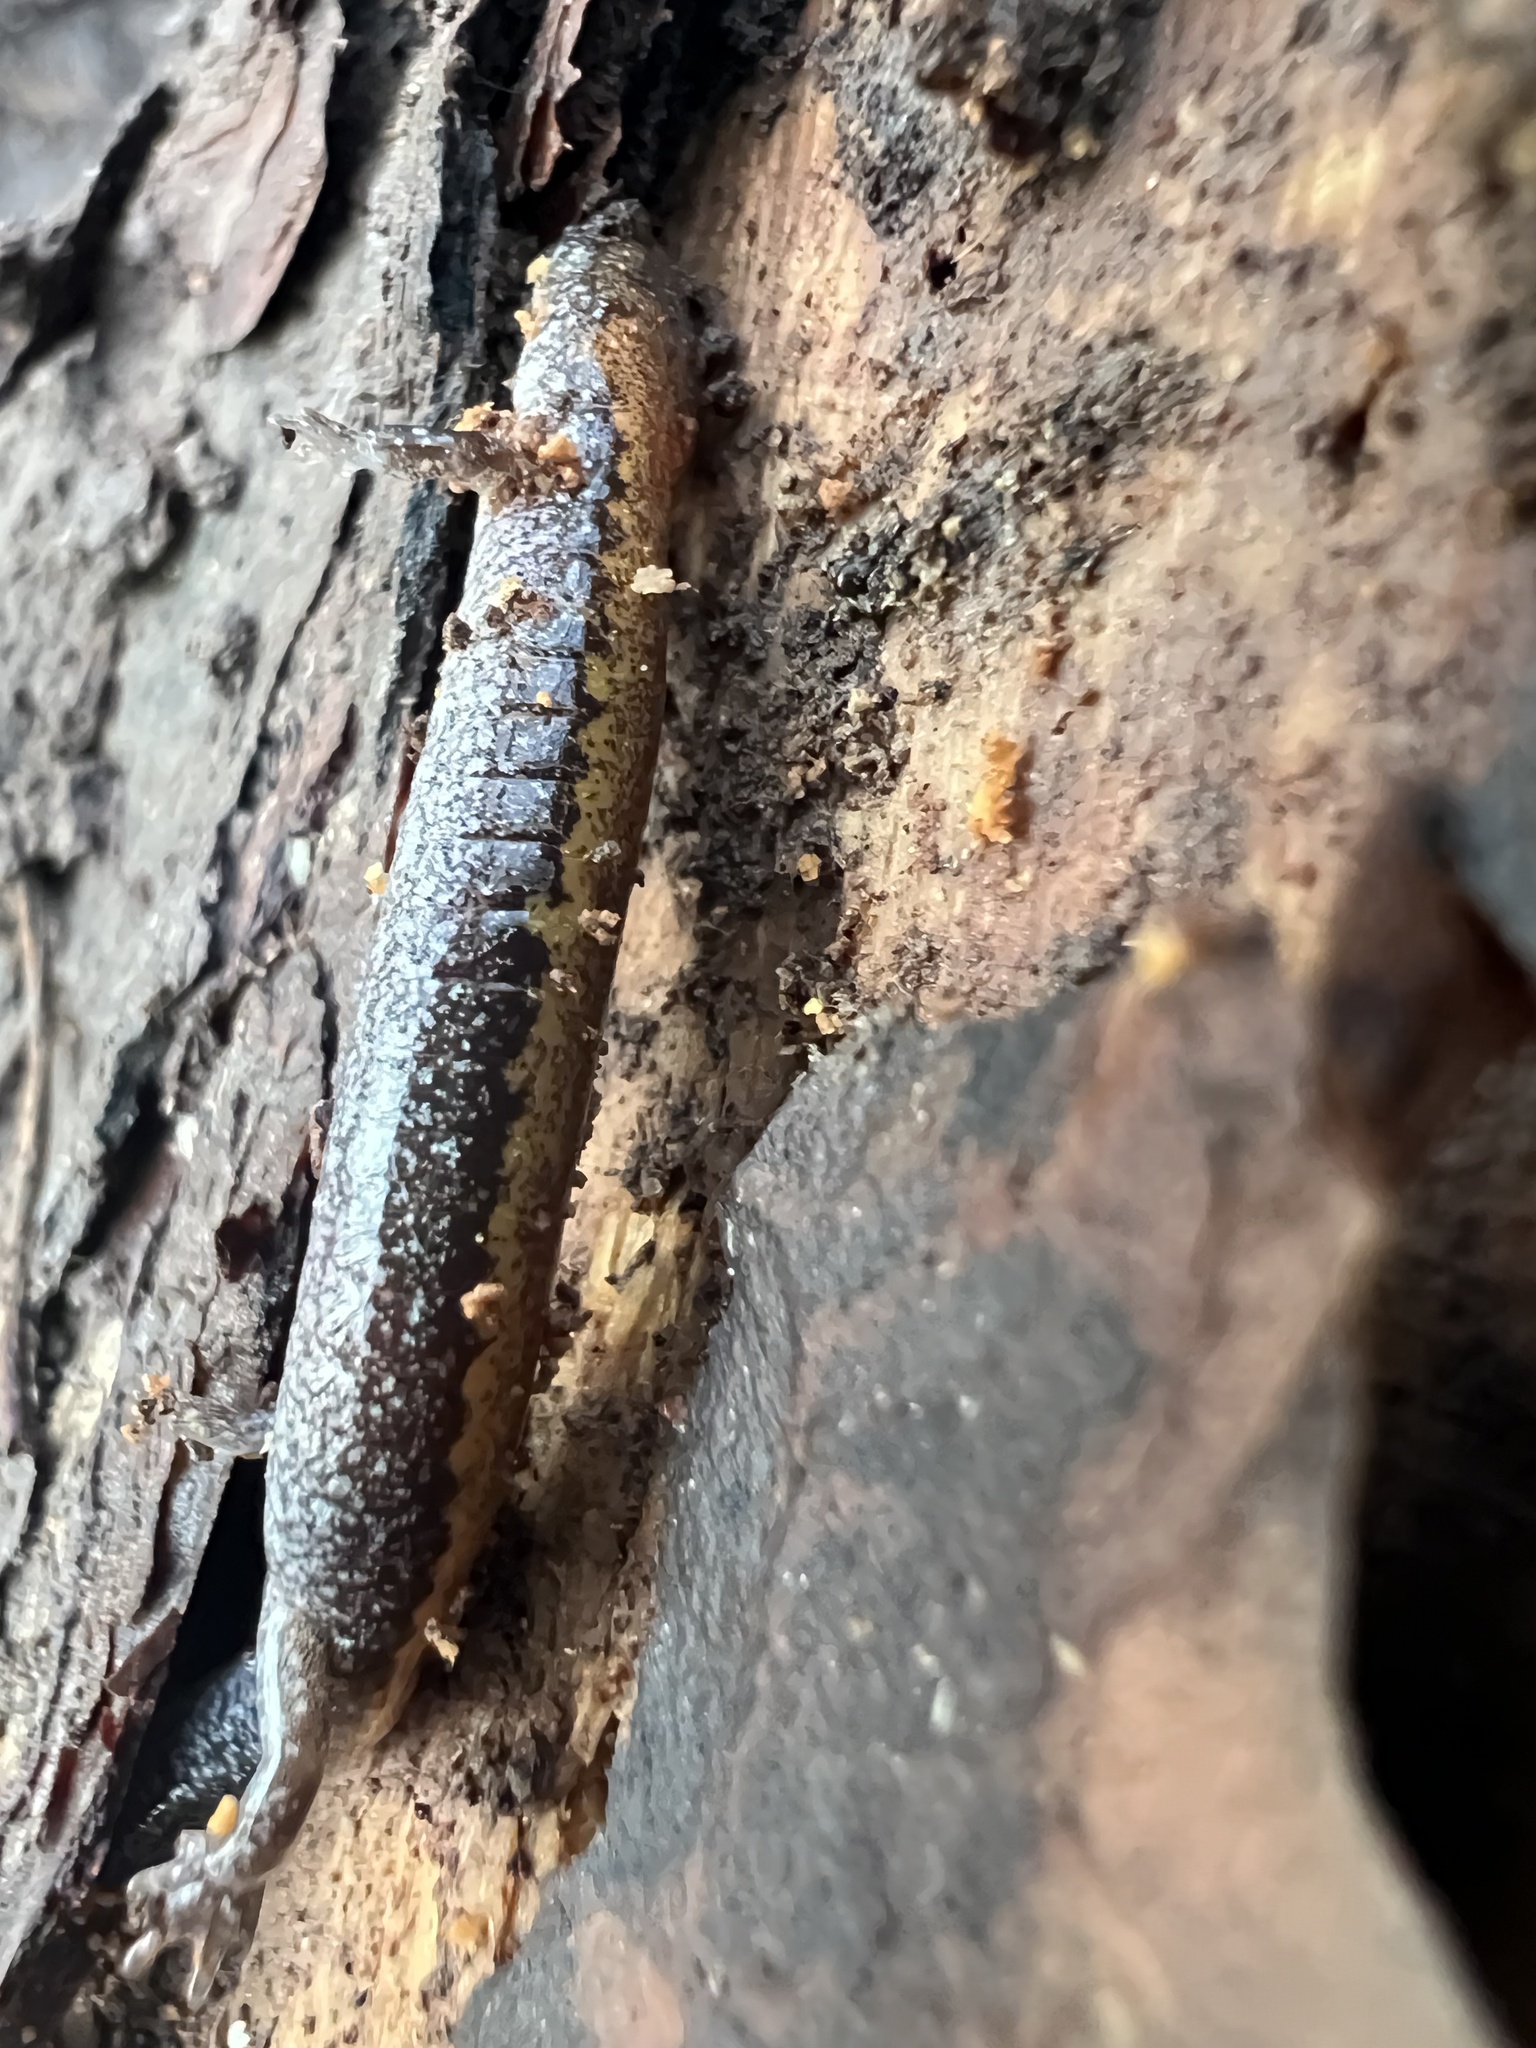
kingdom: Animalia
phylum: Chordata
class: Amphibia
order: Caudata
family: Plethodontidae
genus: Plethodon
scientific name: Plethodon cinereus
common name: Redback salamander
